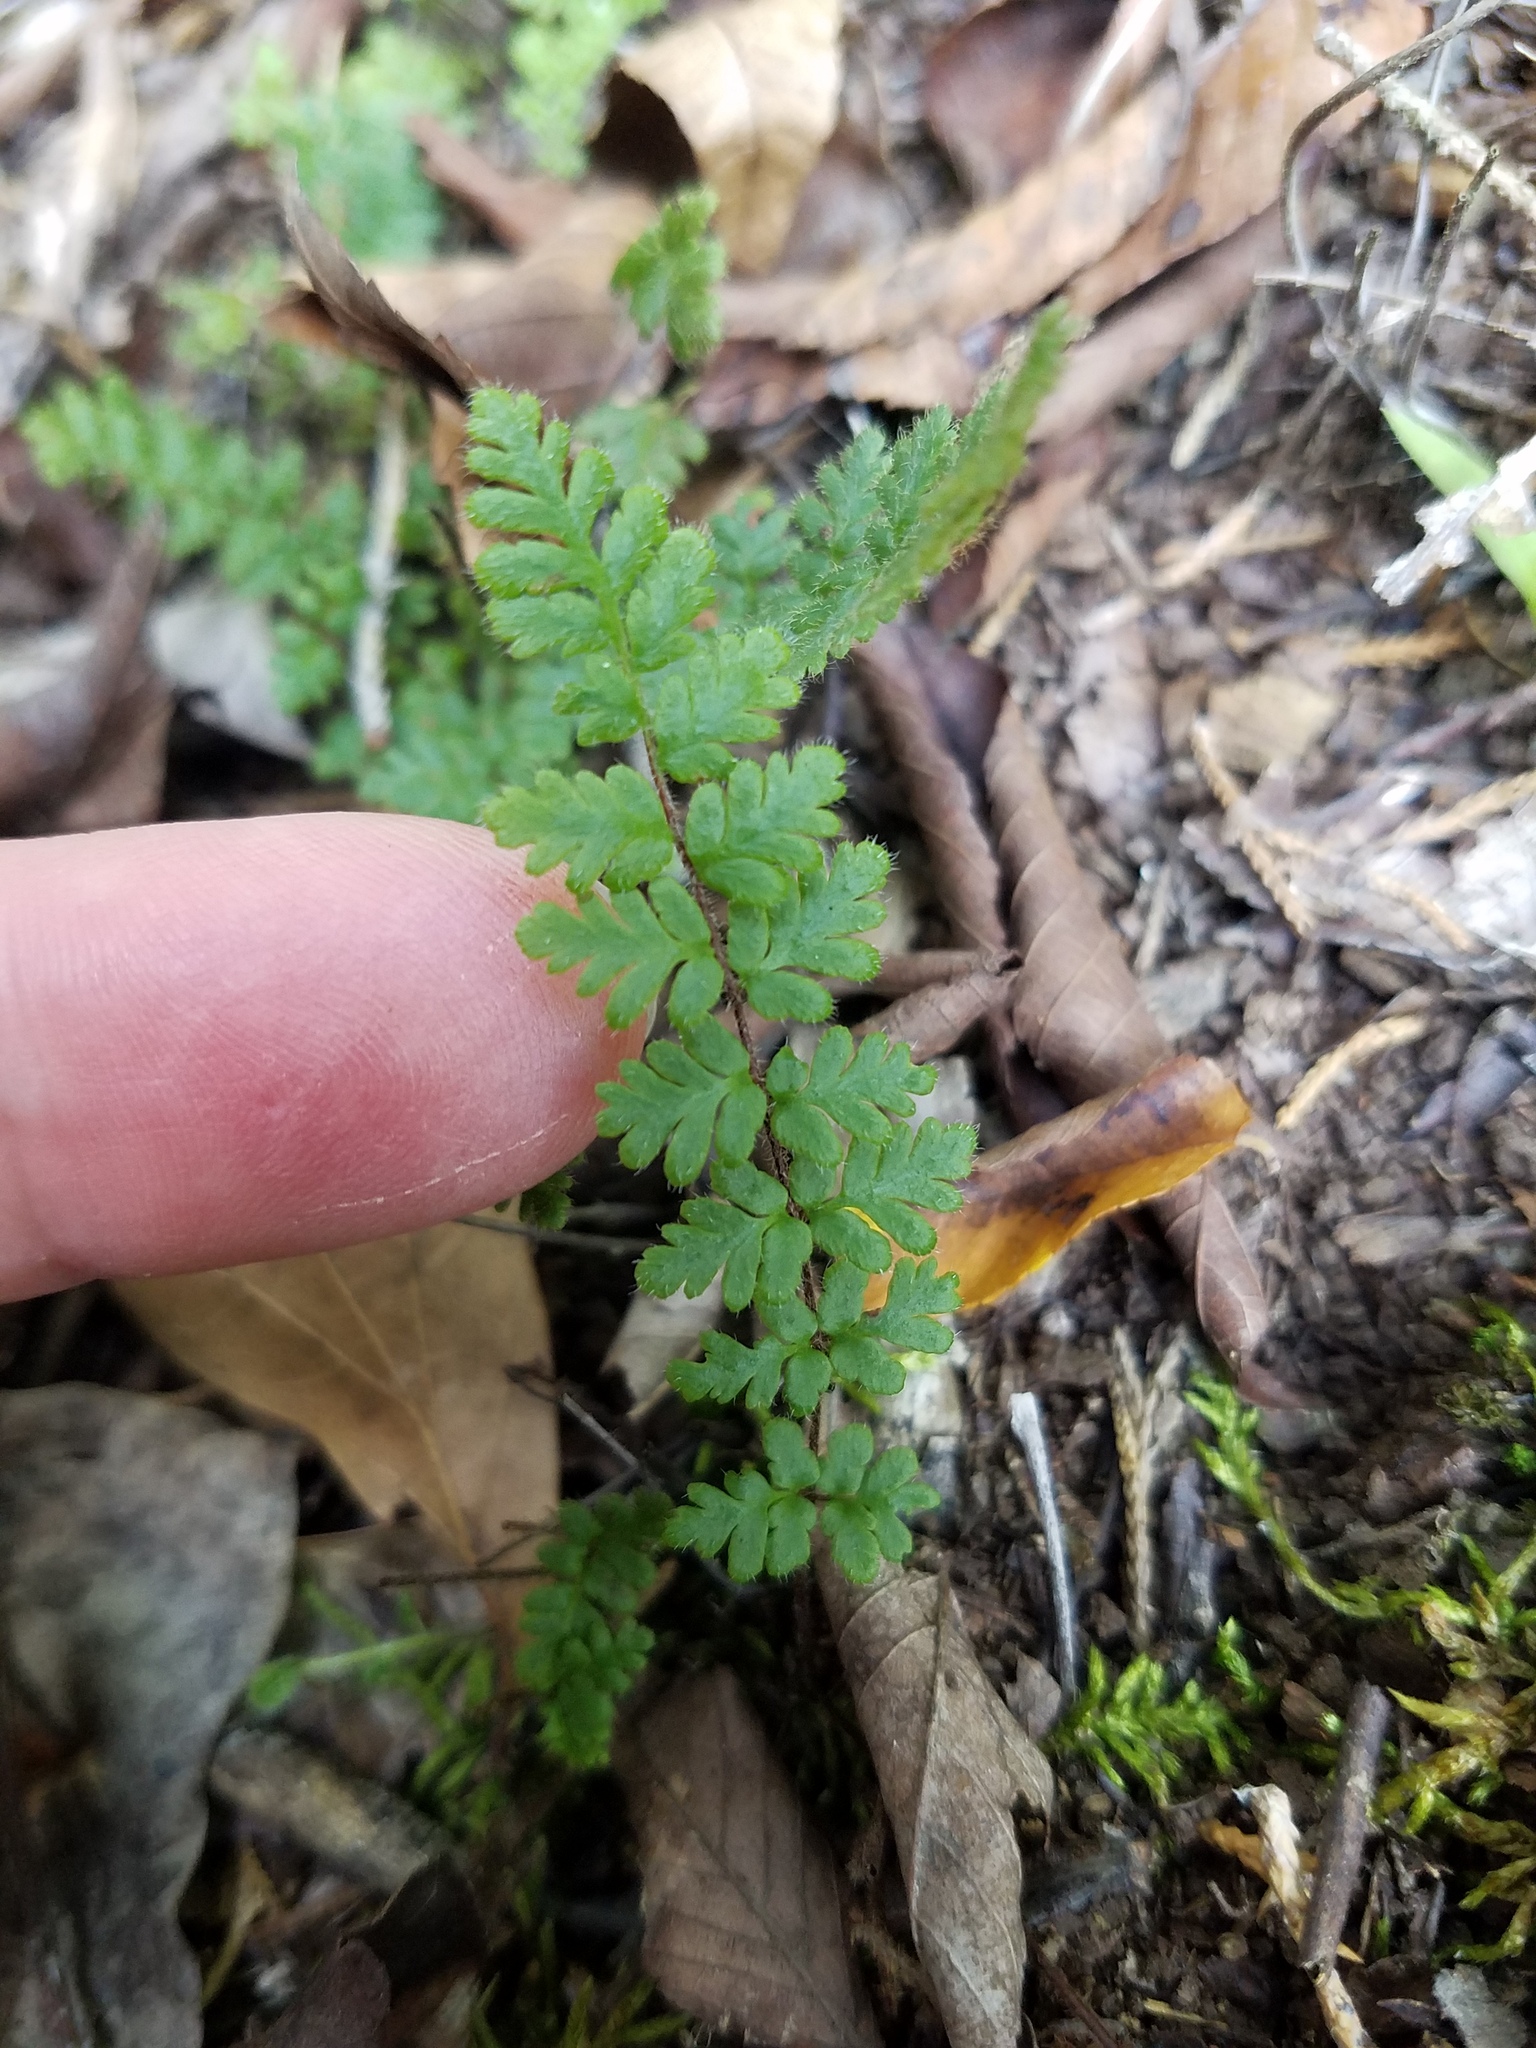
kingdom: Plantae
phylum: Tracheophyta
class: Polypodiopsida
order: Polypodiales
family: Pteridaceae
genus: Myriopteris
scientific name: Myriopteris lanosa
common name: Hairy lip fern
